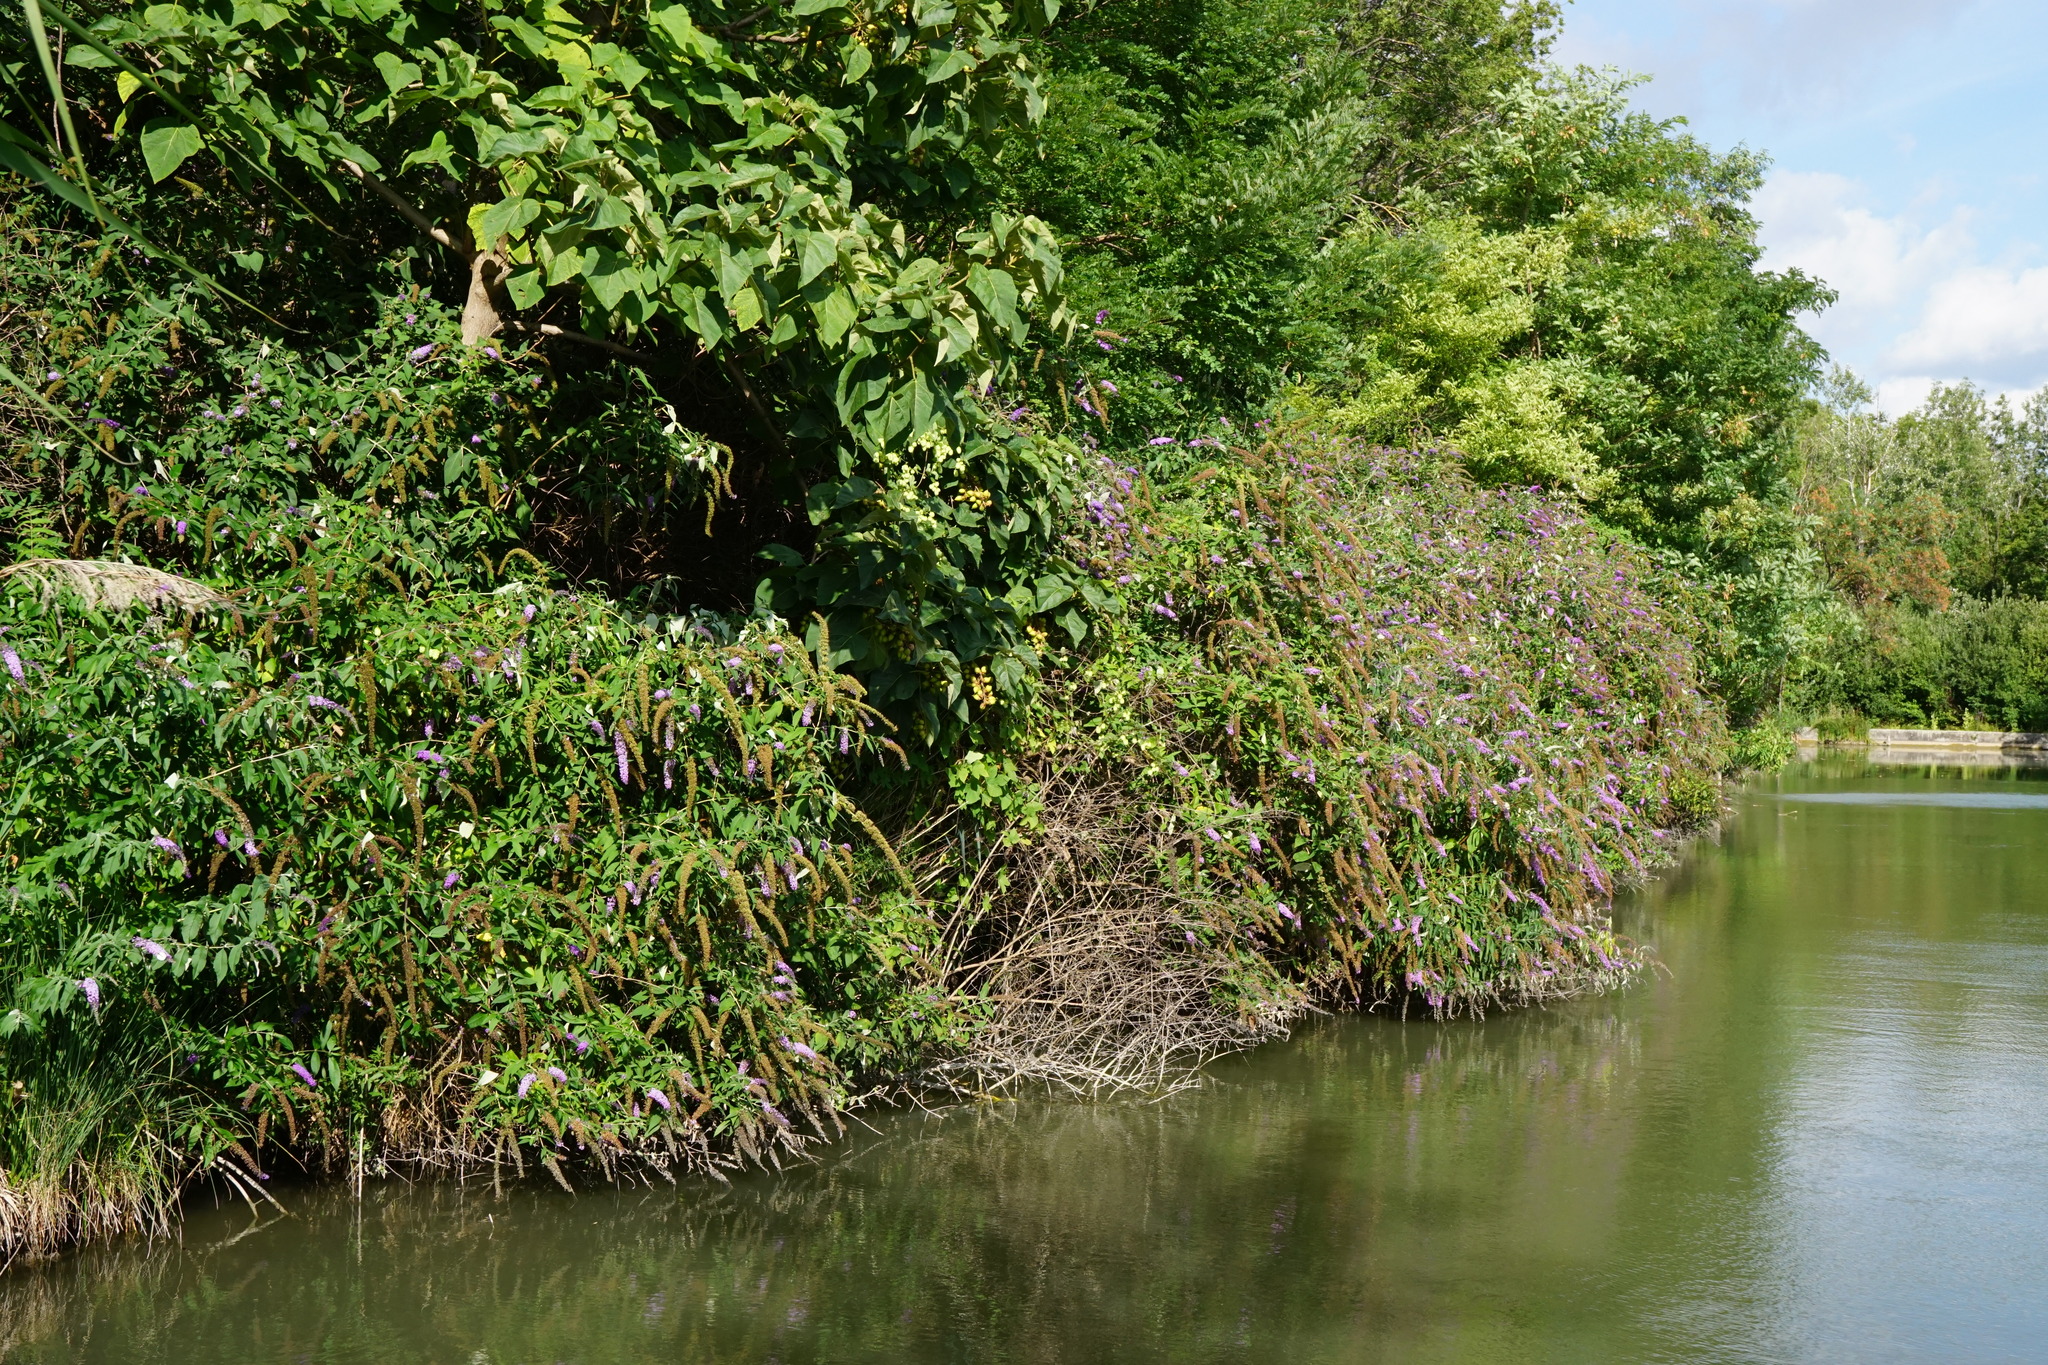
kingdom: Plantae
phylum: Tracheophyta
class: Magnoliopsida
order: Lamiales
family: Scrophulariaceae
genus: Buddleja
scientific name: Buddleja davidii
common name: Butterfly-bush
